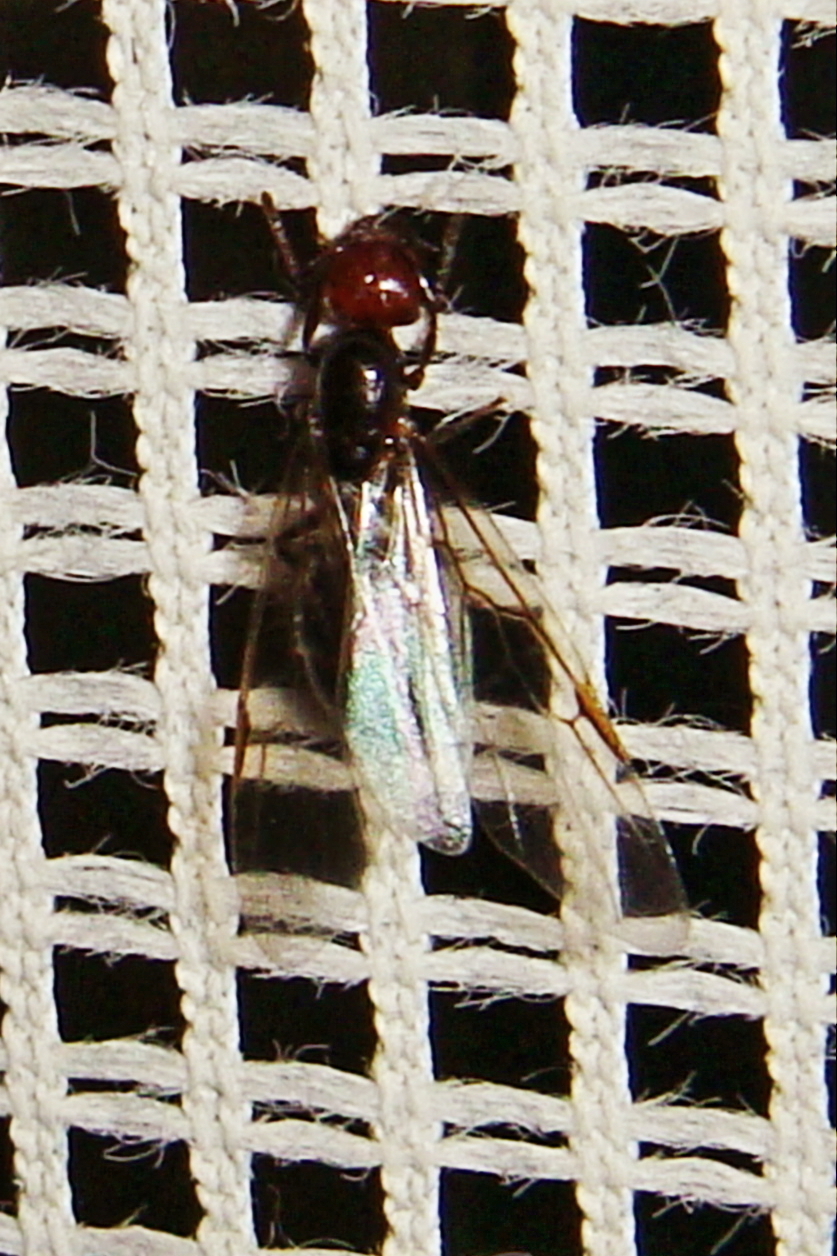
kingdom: Animalia
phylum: Arthropoda
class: Insecta
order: Hymenoptera
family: Formicidae
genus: Crematogaster
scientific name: Crematogaster scutellaris
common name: Fourmi du liège
